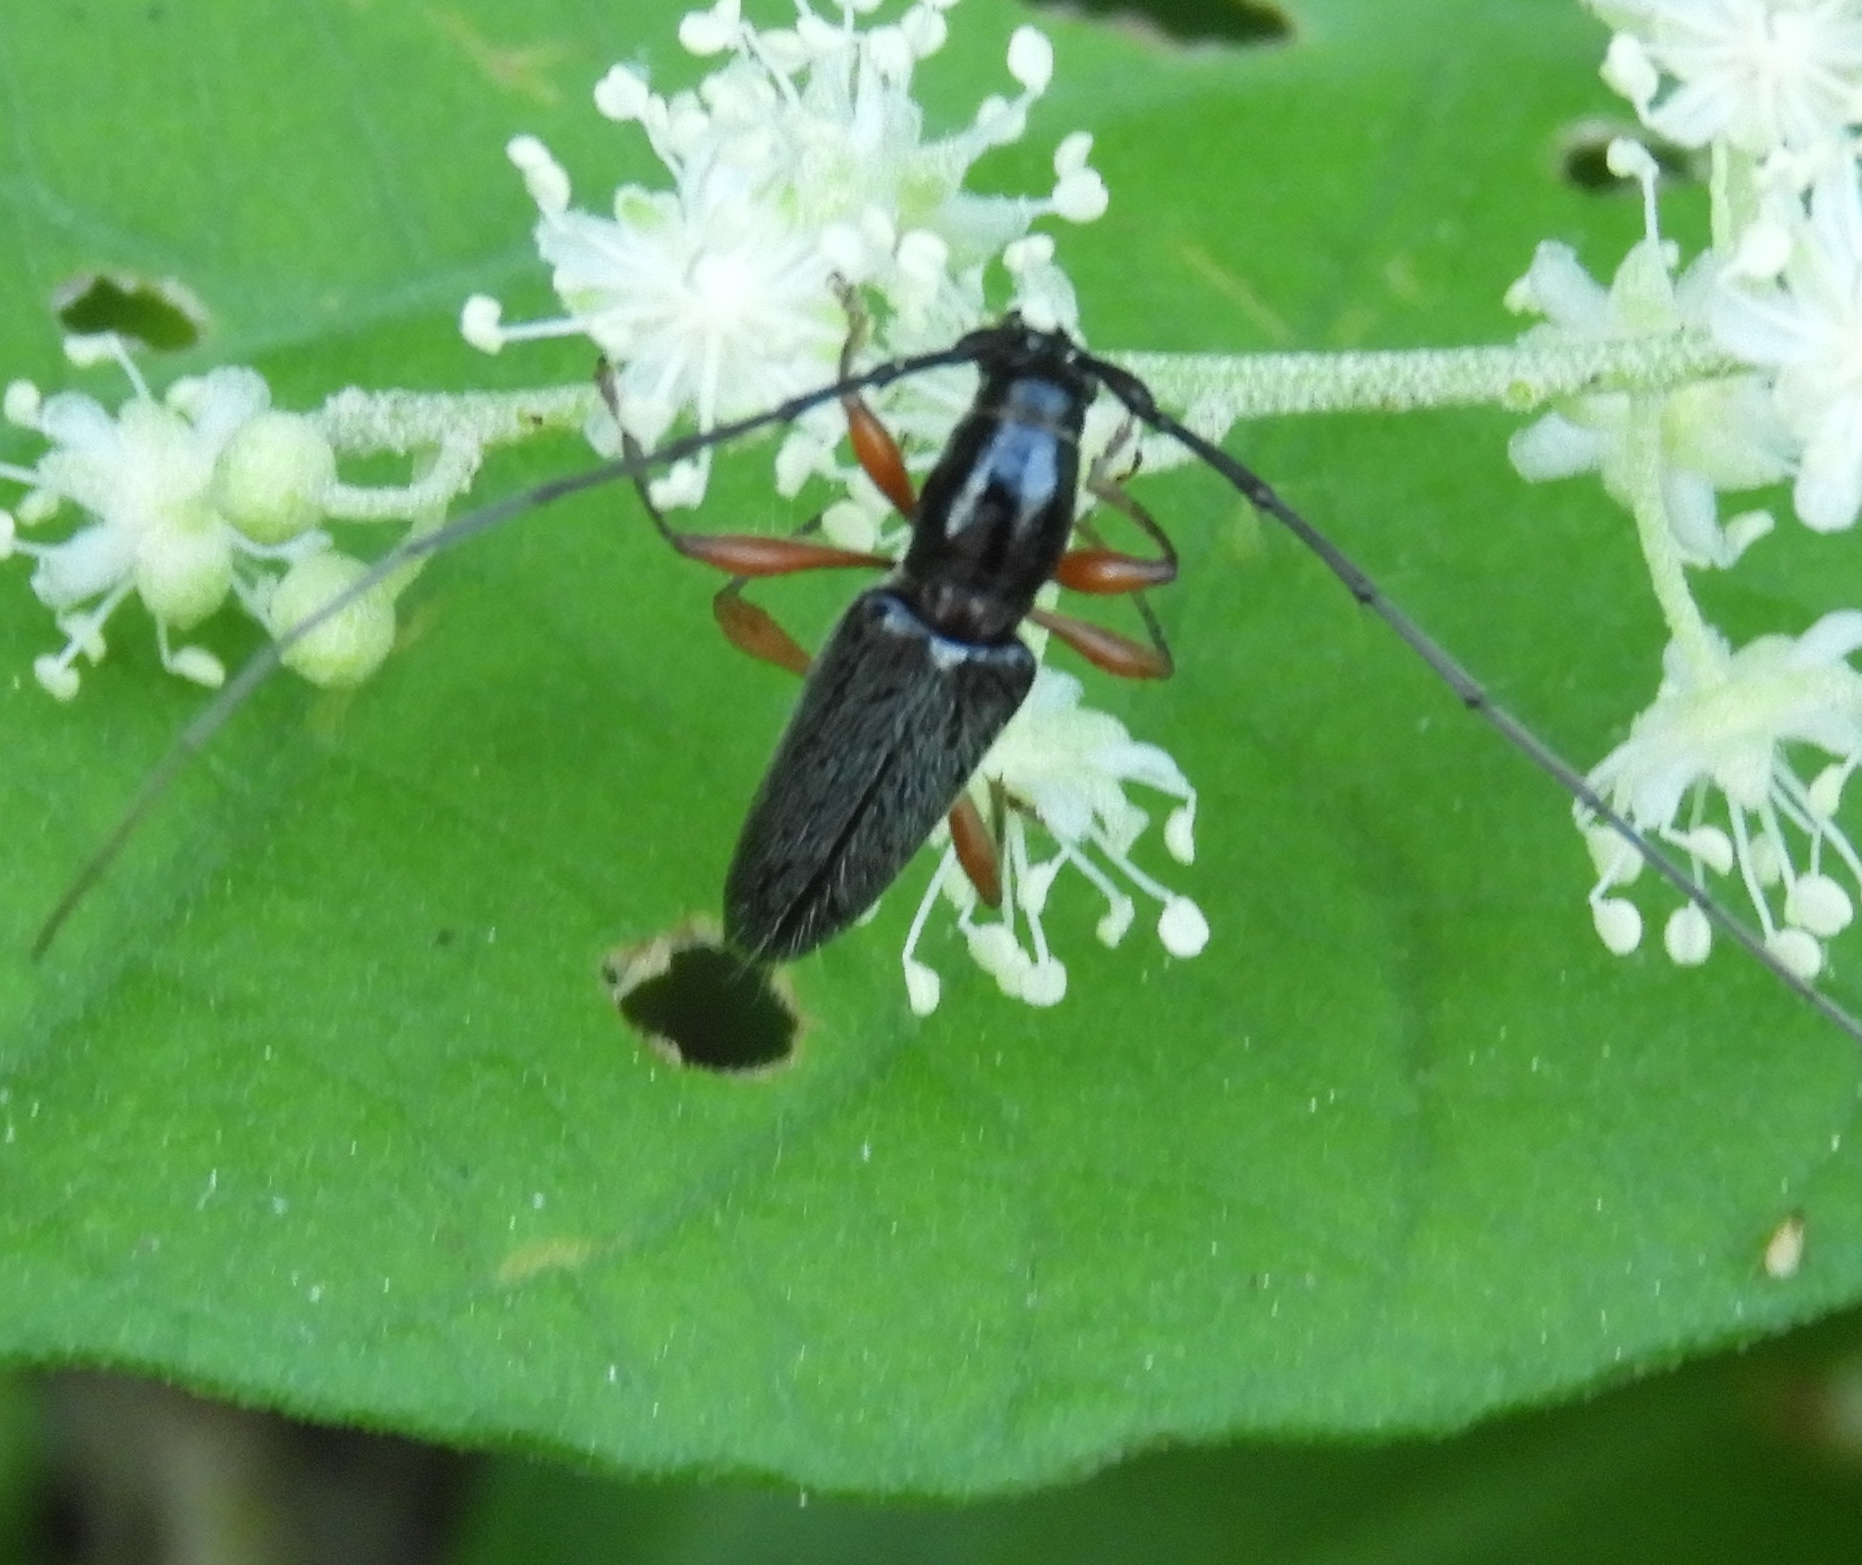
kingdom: Animalia
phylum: Arthropoda
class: Insecta
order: Coleoptera
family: Cerambycidae
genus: Stenosphenus
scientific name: Stenosphenus
